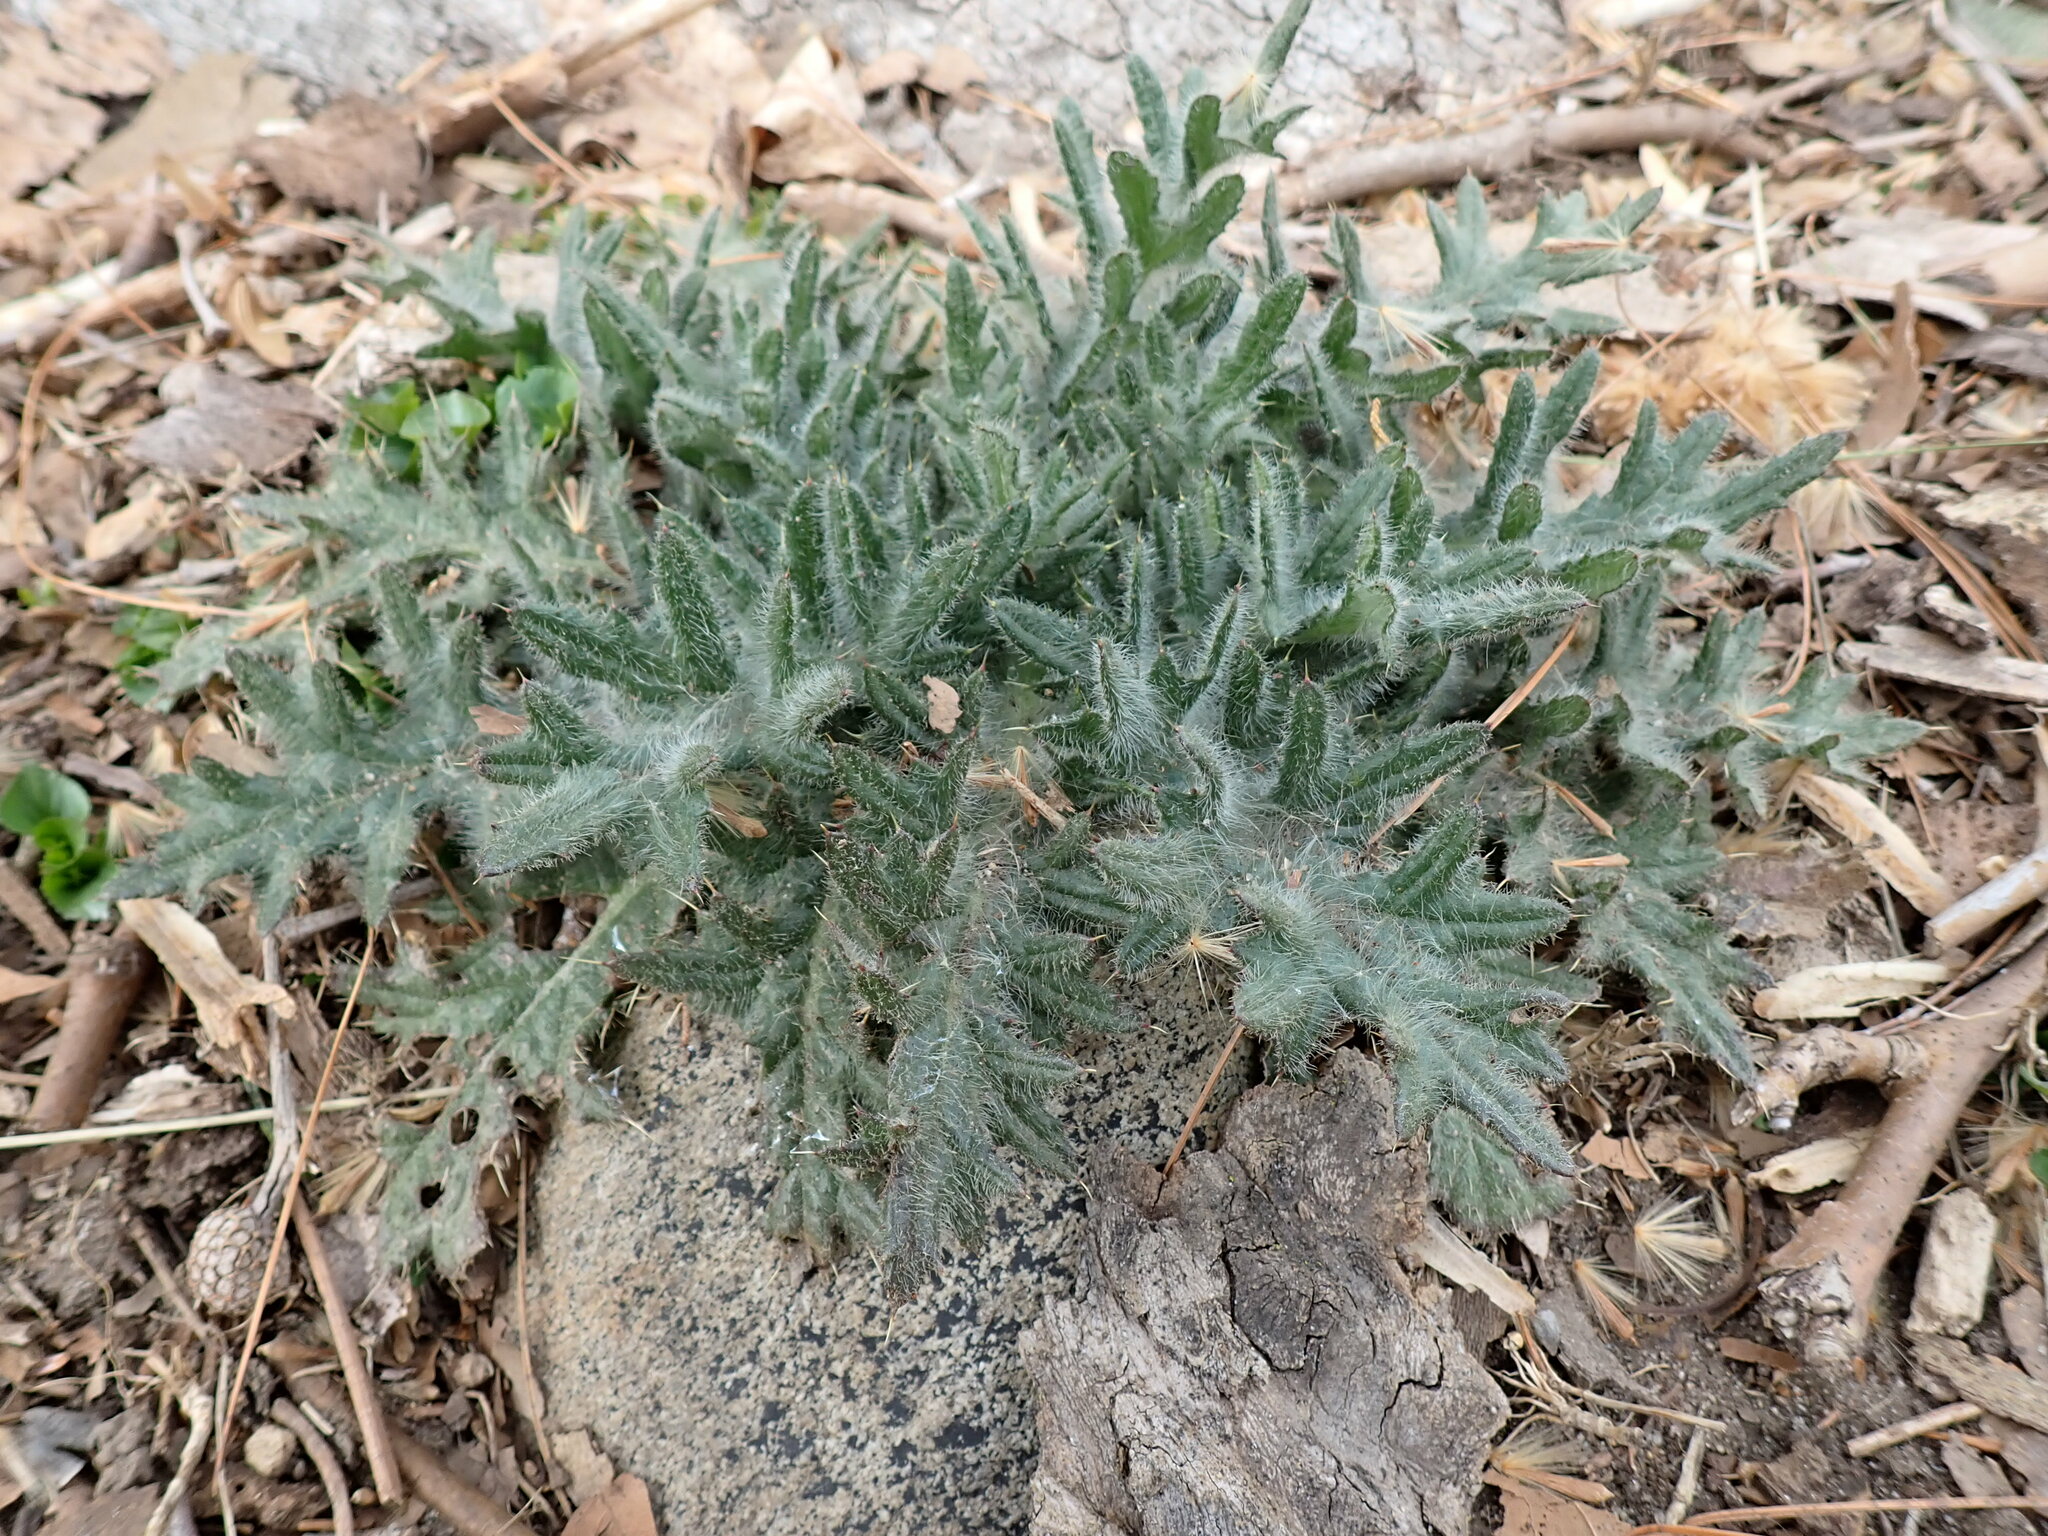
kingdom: Plantae
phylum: Tracheophyta
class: Magnoliopsida
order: Asterales
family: Asteraceae
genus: Cirsium
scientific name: Cirsium vulgare
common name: Bull thistle
